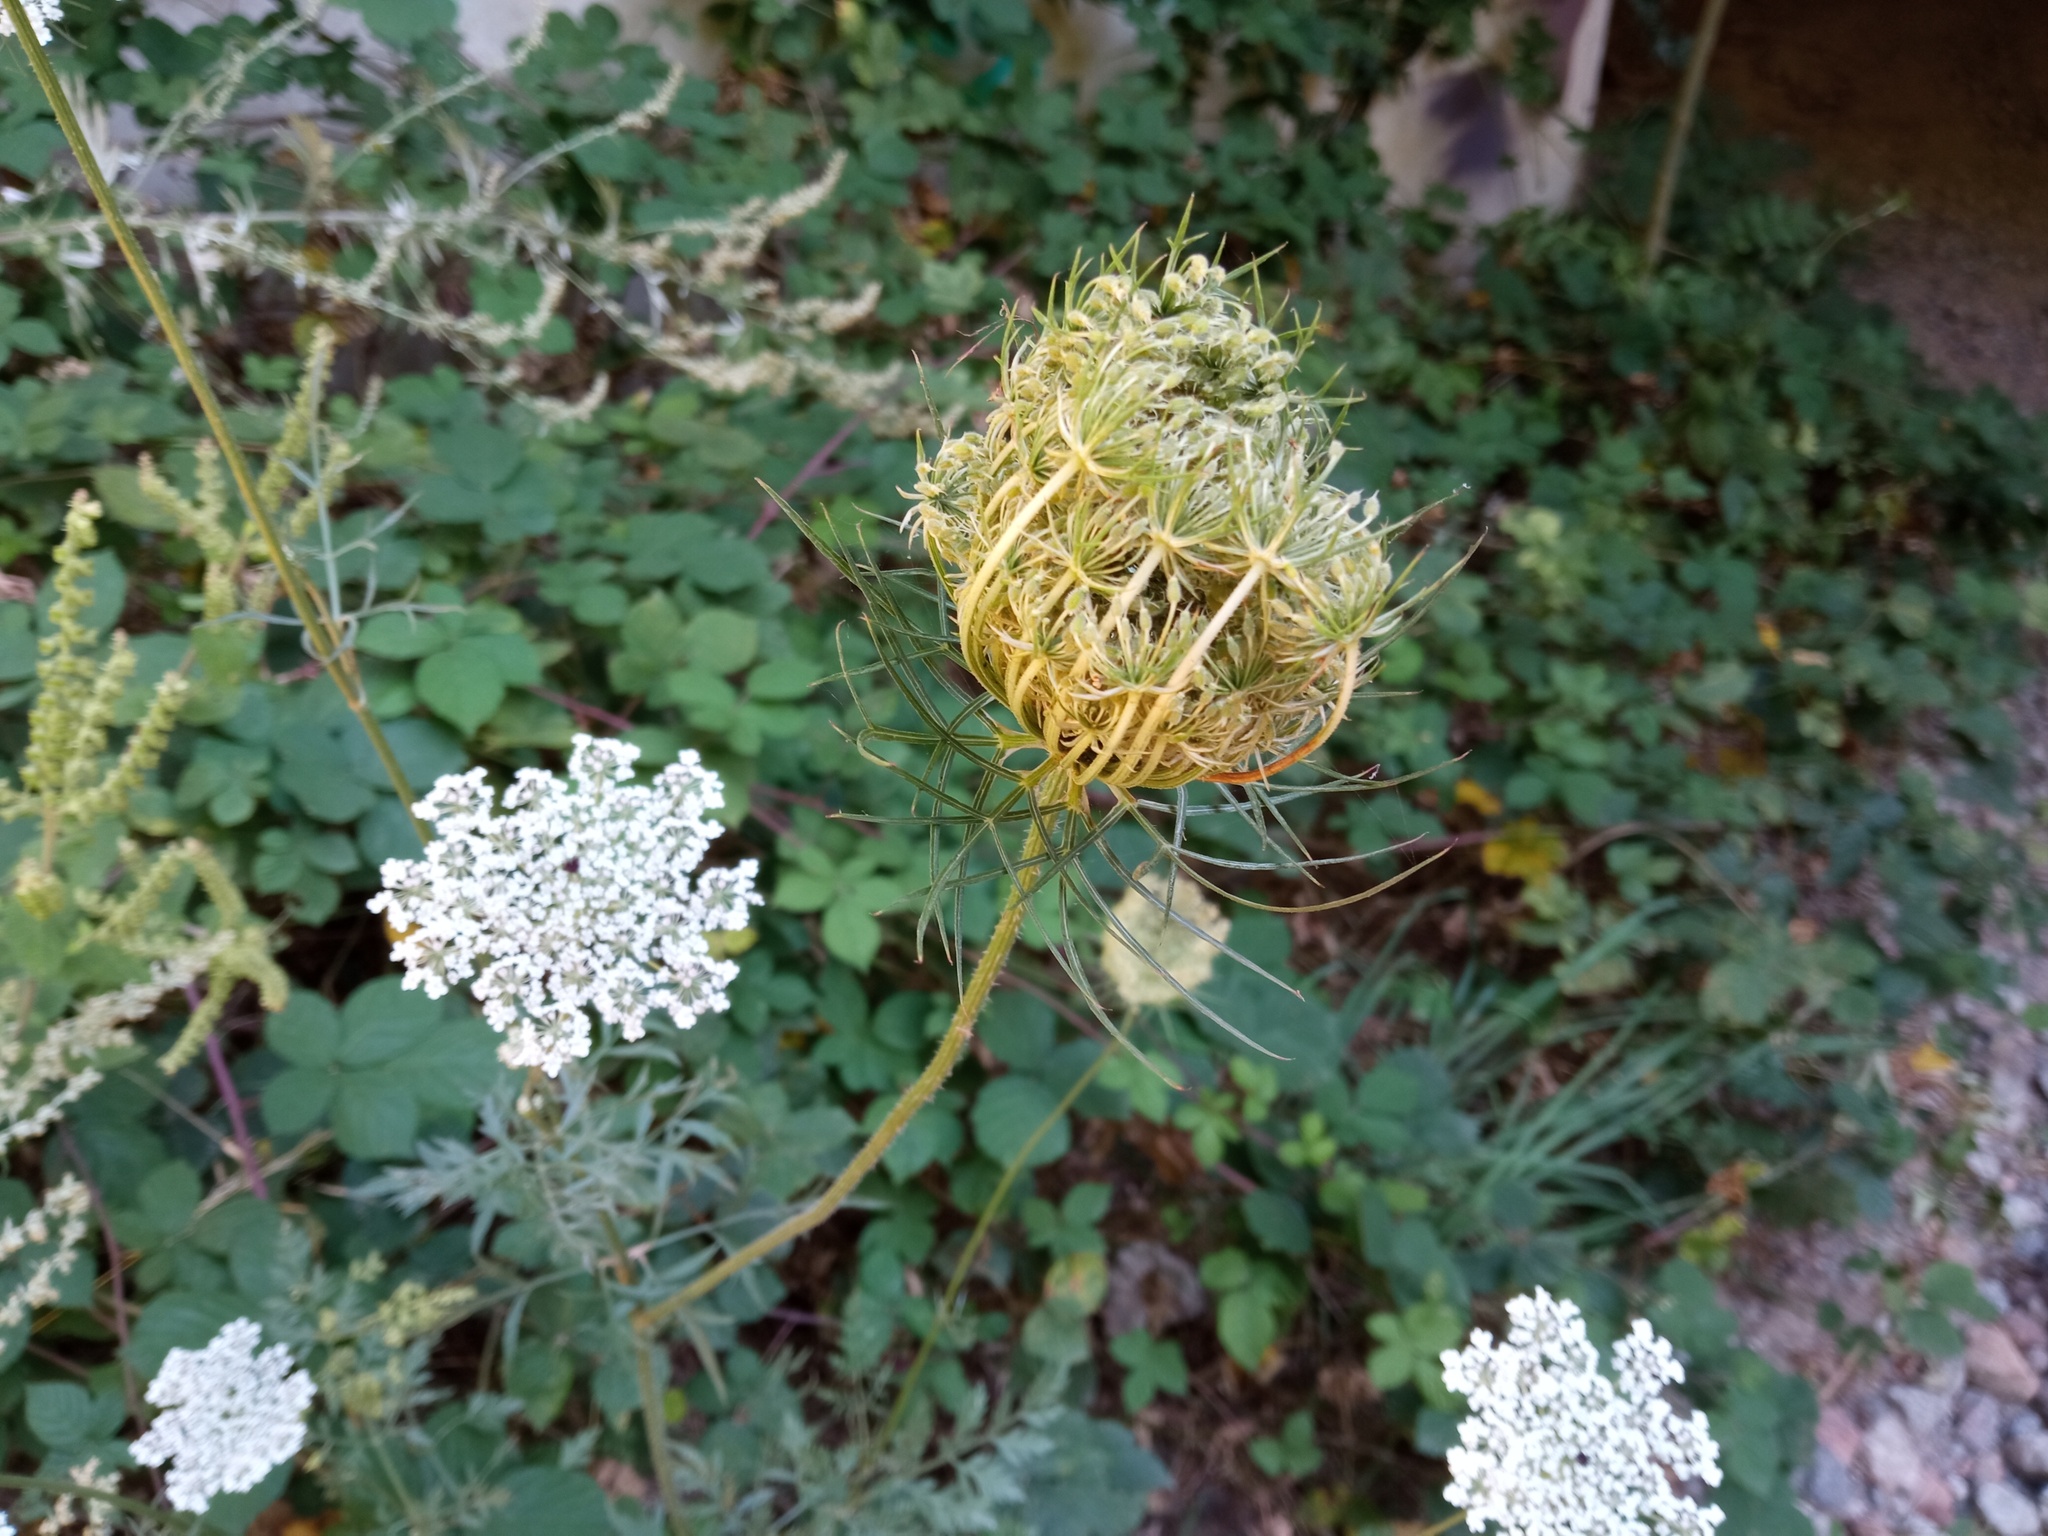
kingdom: Plantae
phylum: Tracheophyta
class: Magnoliopsida
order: Apiales
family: Apiaceae
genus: Daucus
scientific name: Daucus carota
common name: Wild carrot
